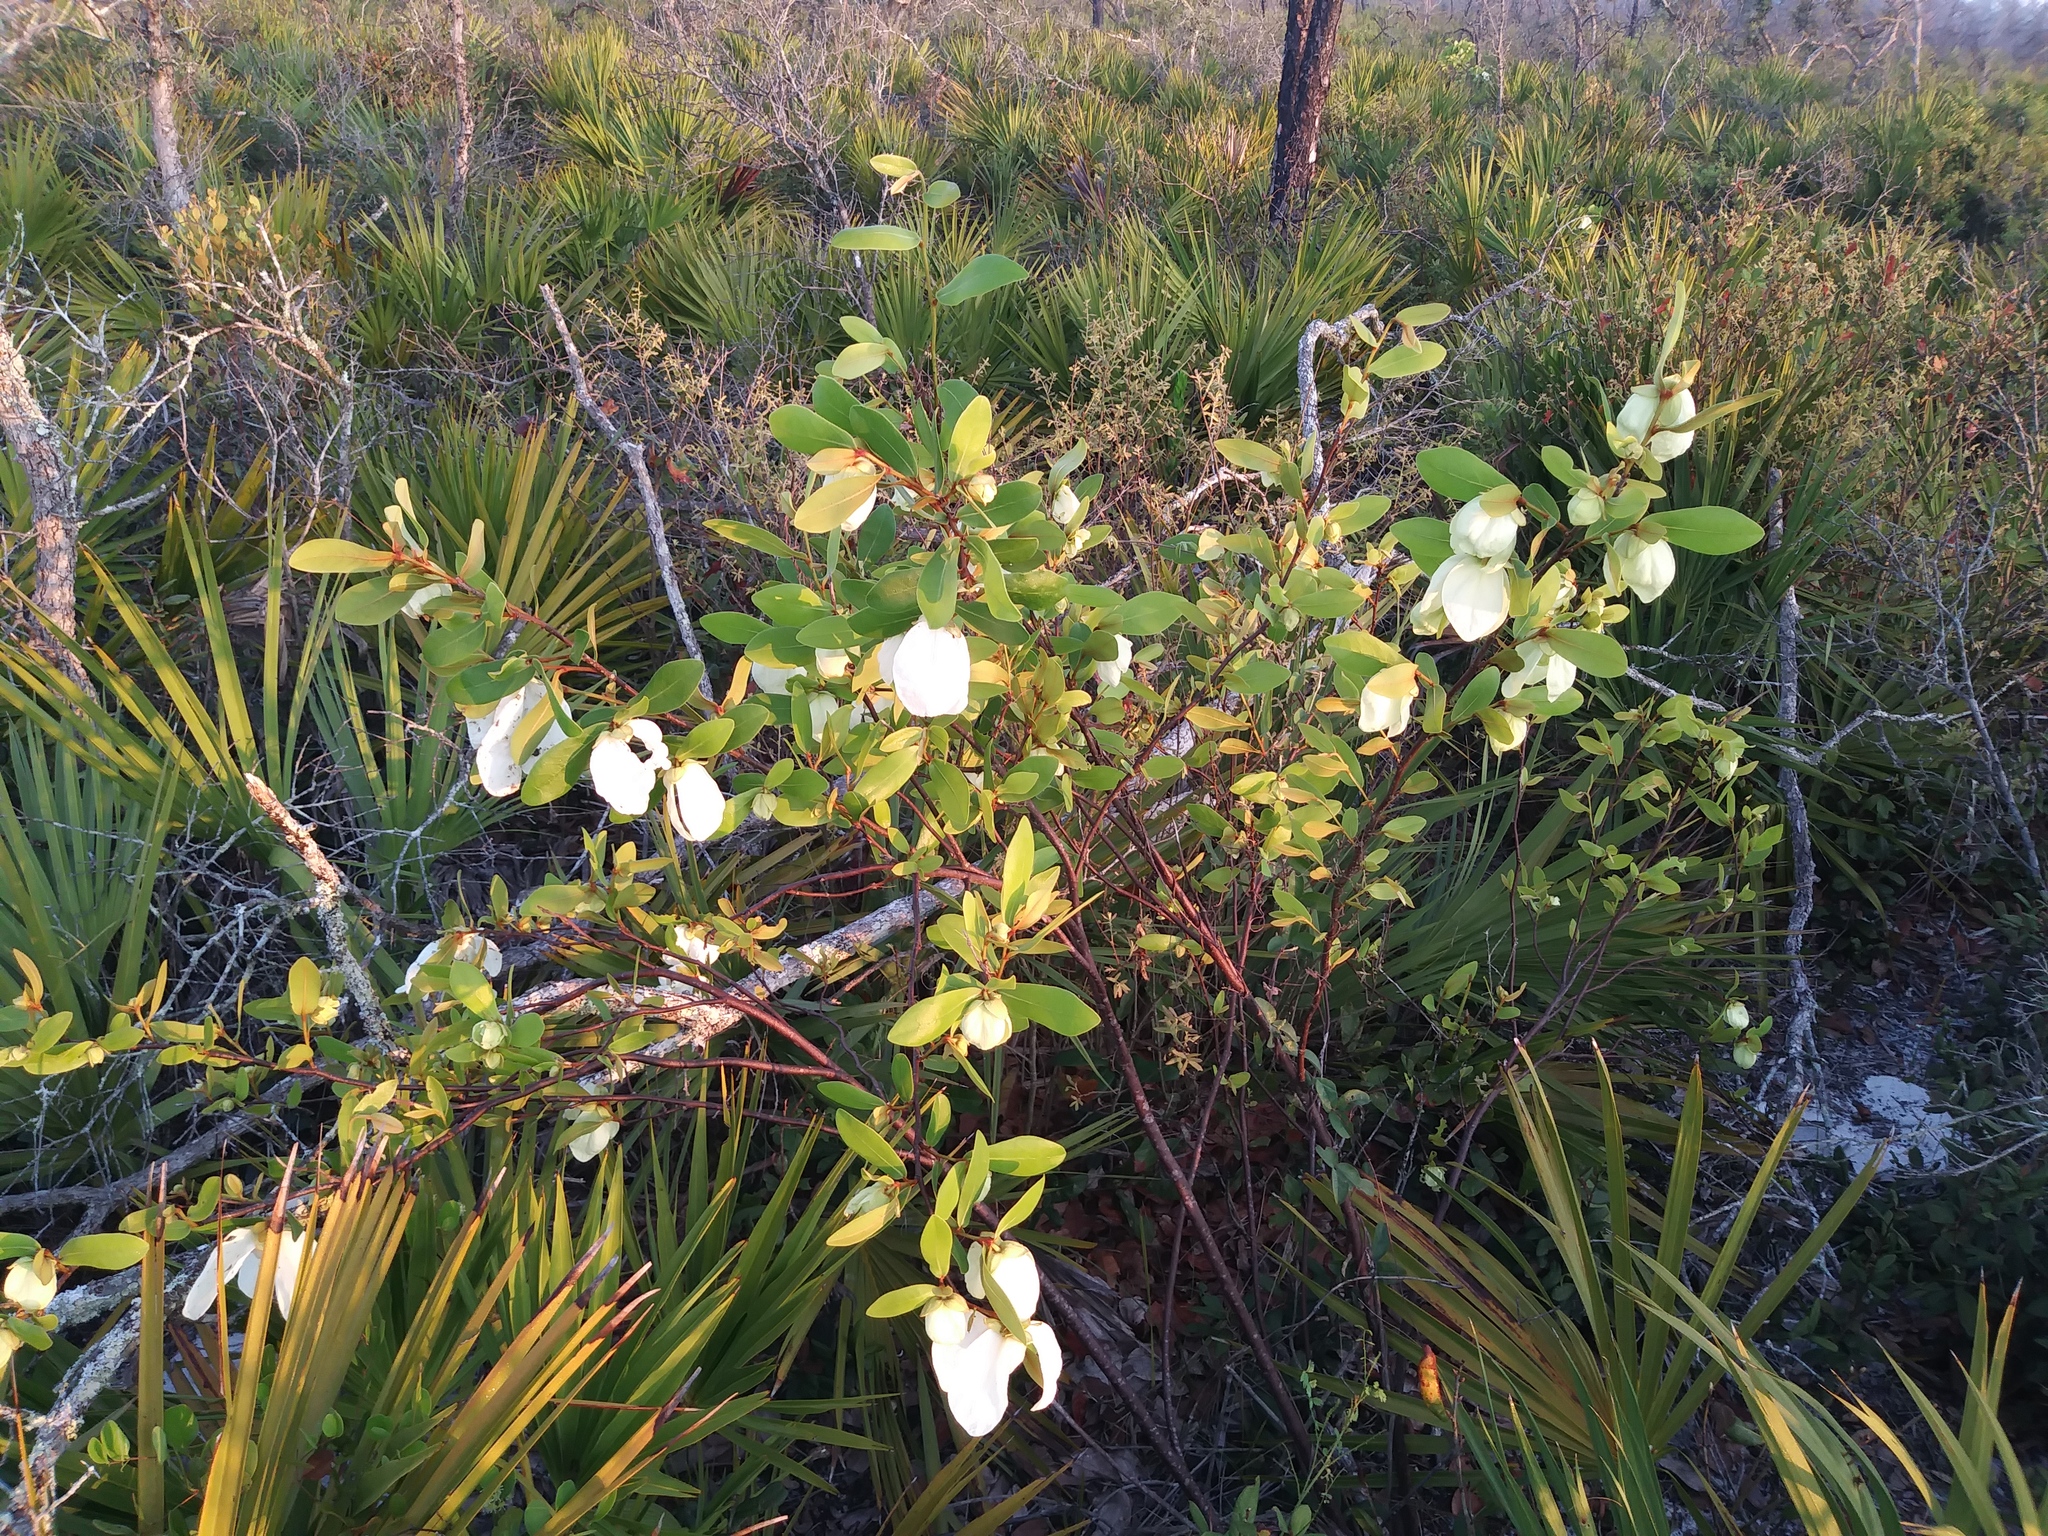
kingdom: Plantae
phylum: Tracheophyta
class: Magnoliopsida
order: Magnoliales
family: Annonaceae
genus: Asimina
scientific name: Asimina obovata
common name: Flag pawpaw
